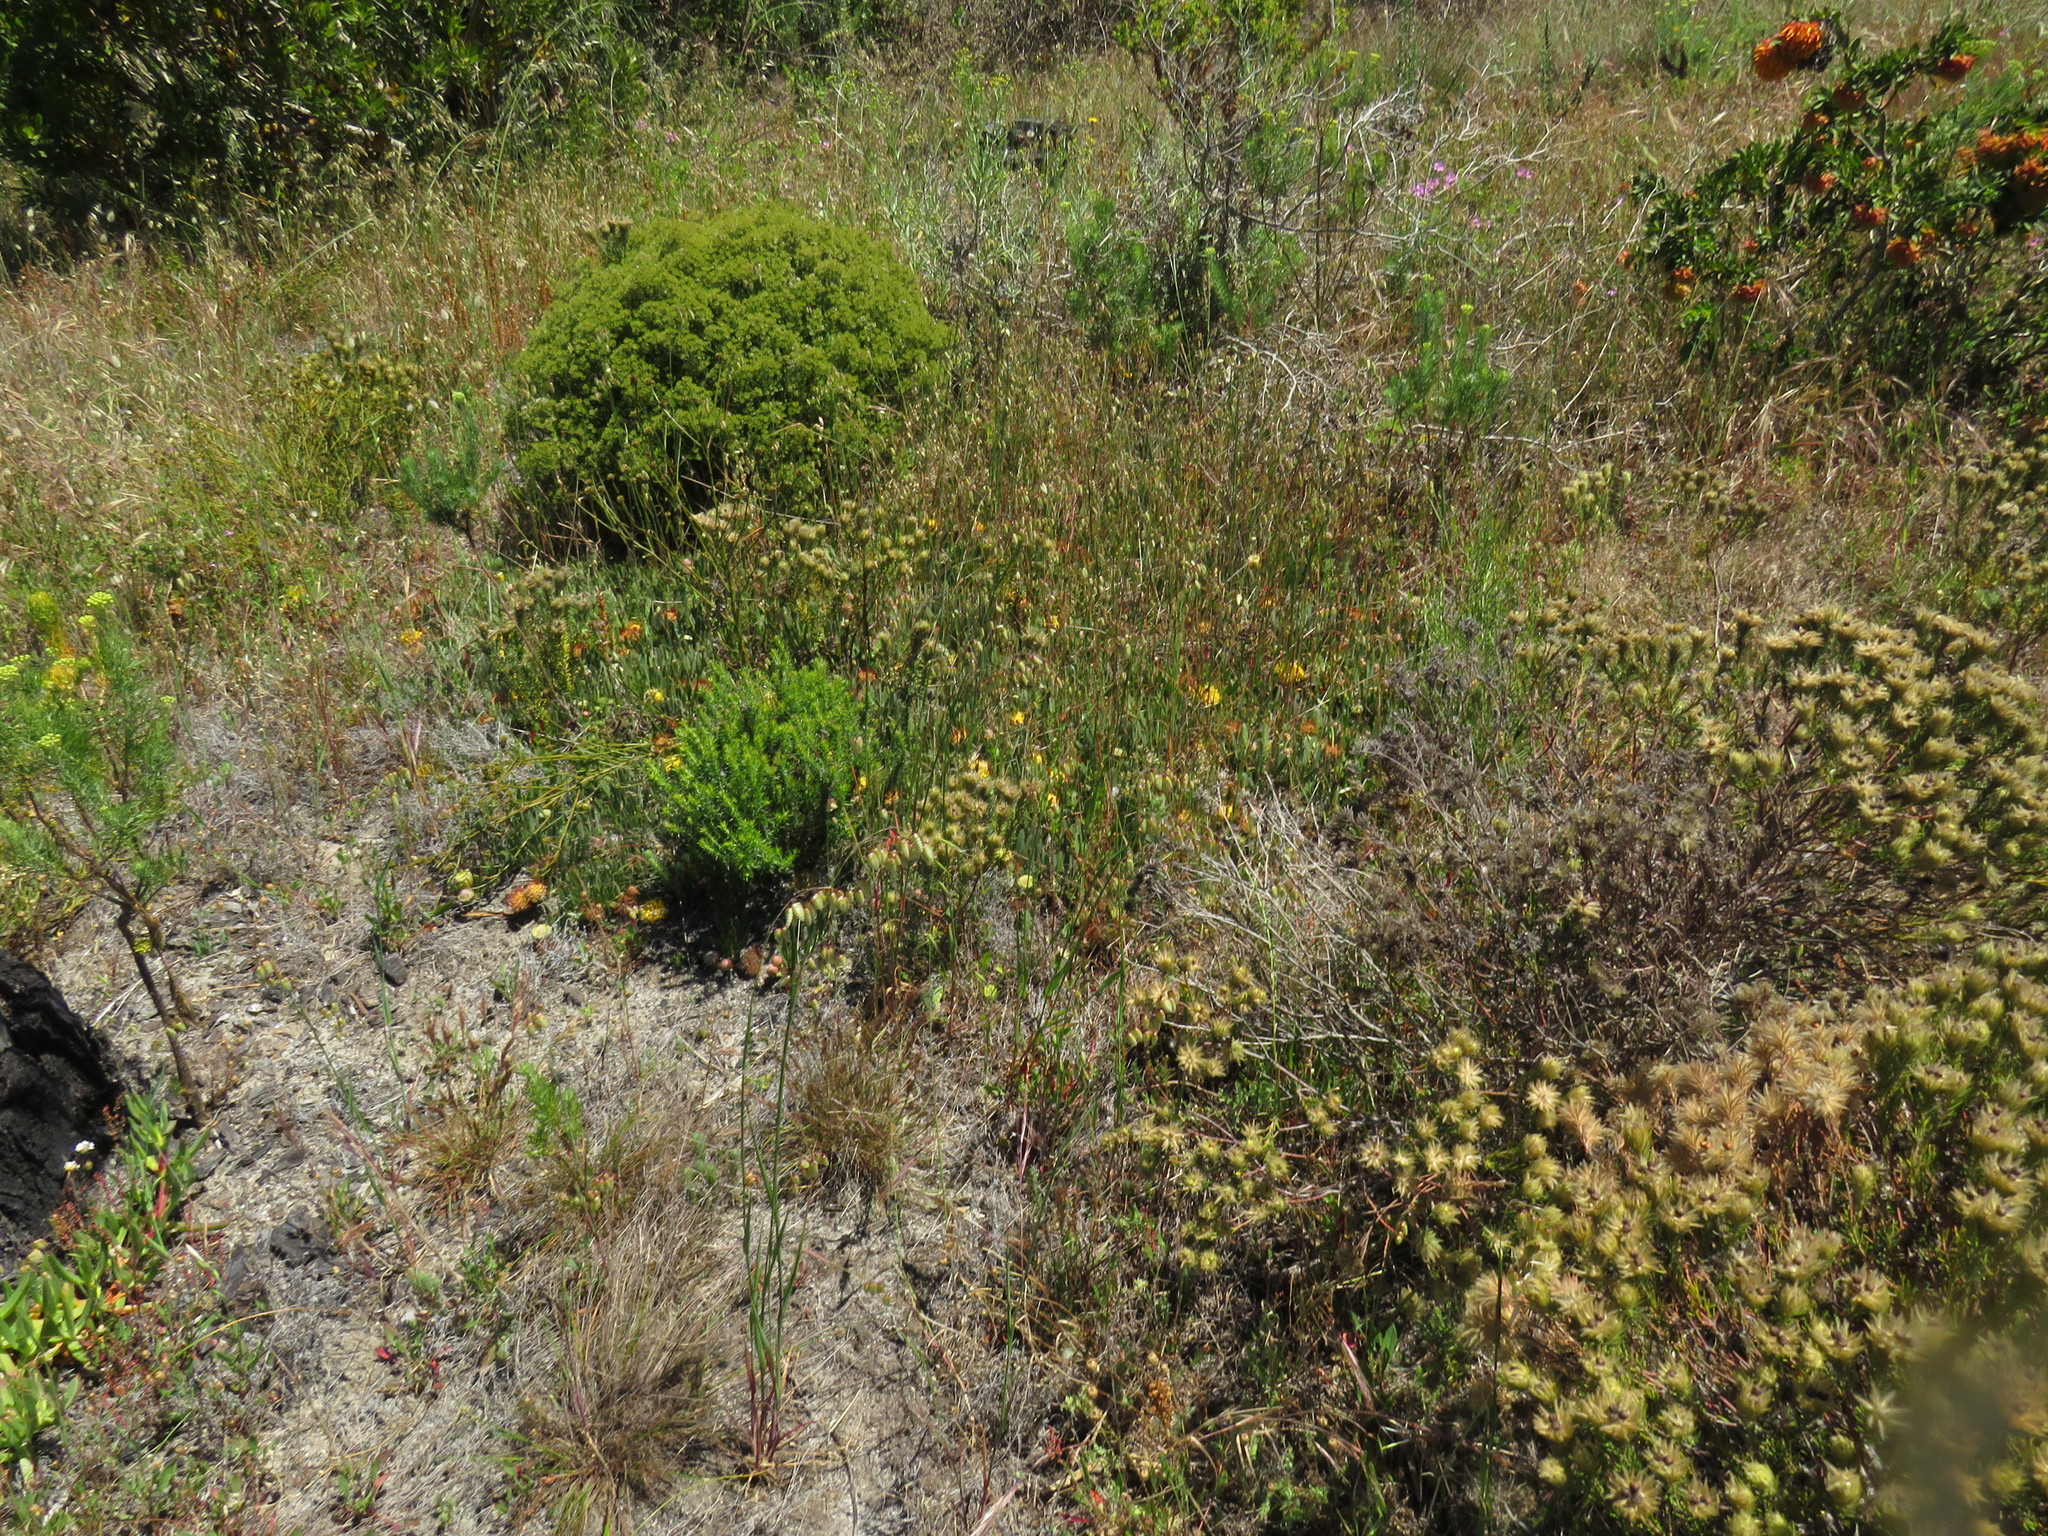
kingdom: Plantae
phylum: Tracheophyta
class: Magnoliopsida
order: Proteales
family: Proteaceae
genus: Leucospermum
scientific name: Leucospermum hypophyllocarpodendron
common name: Snakestem pincushion
